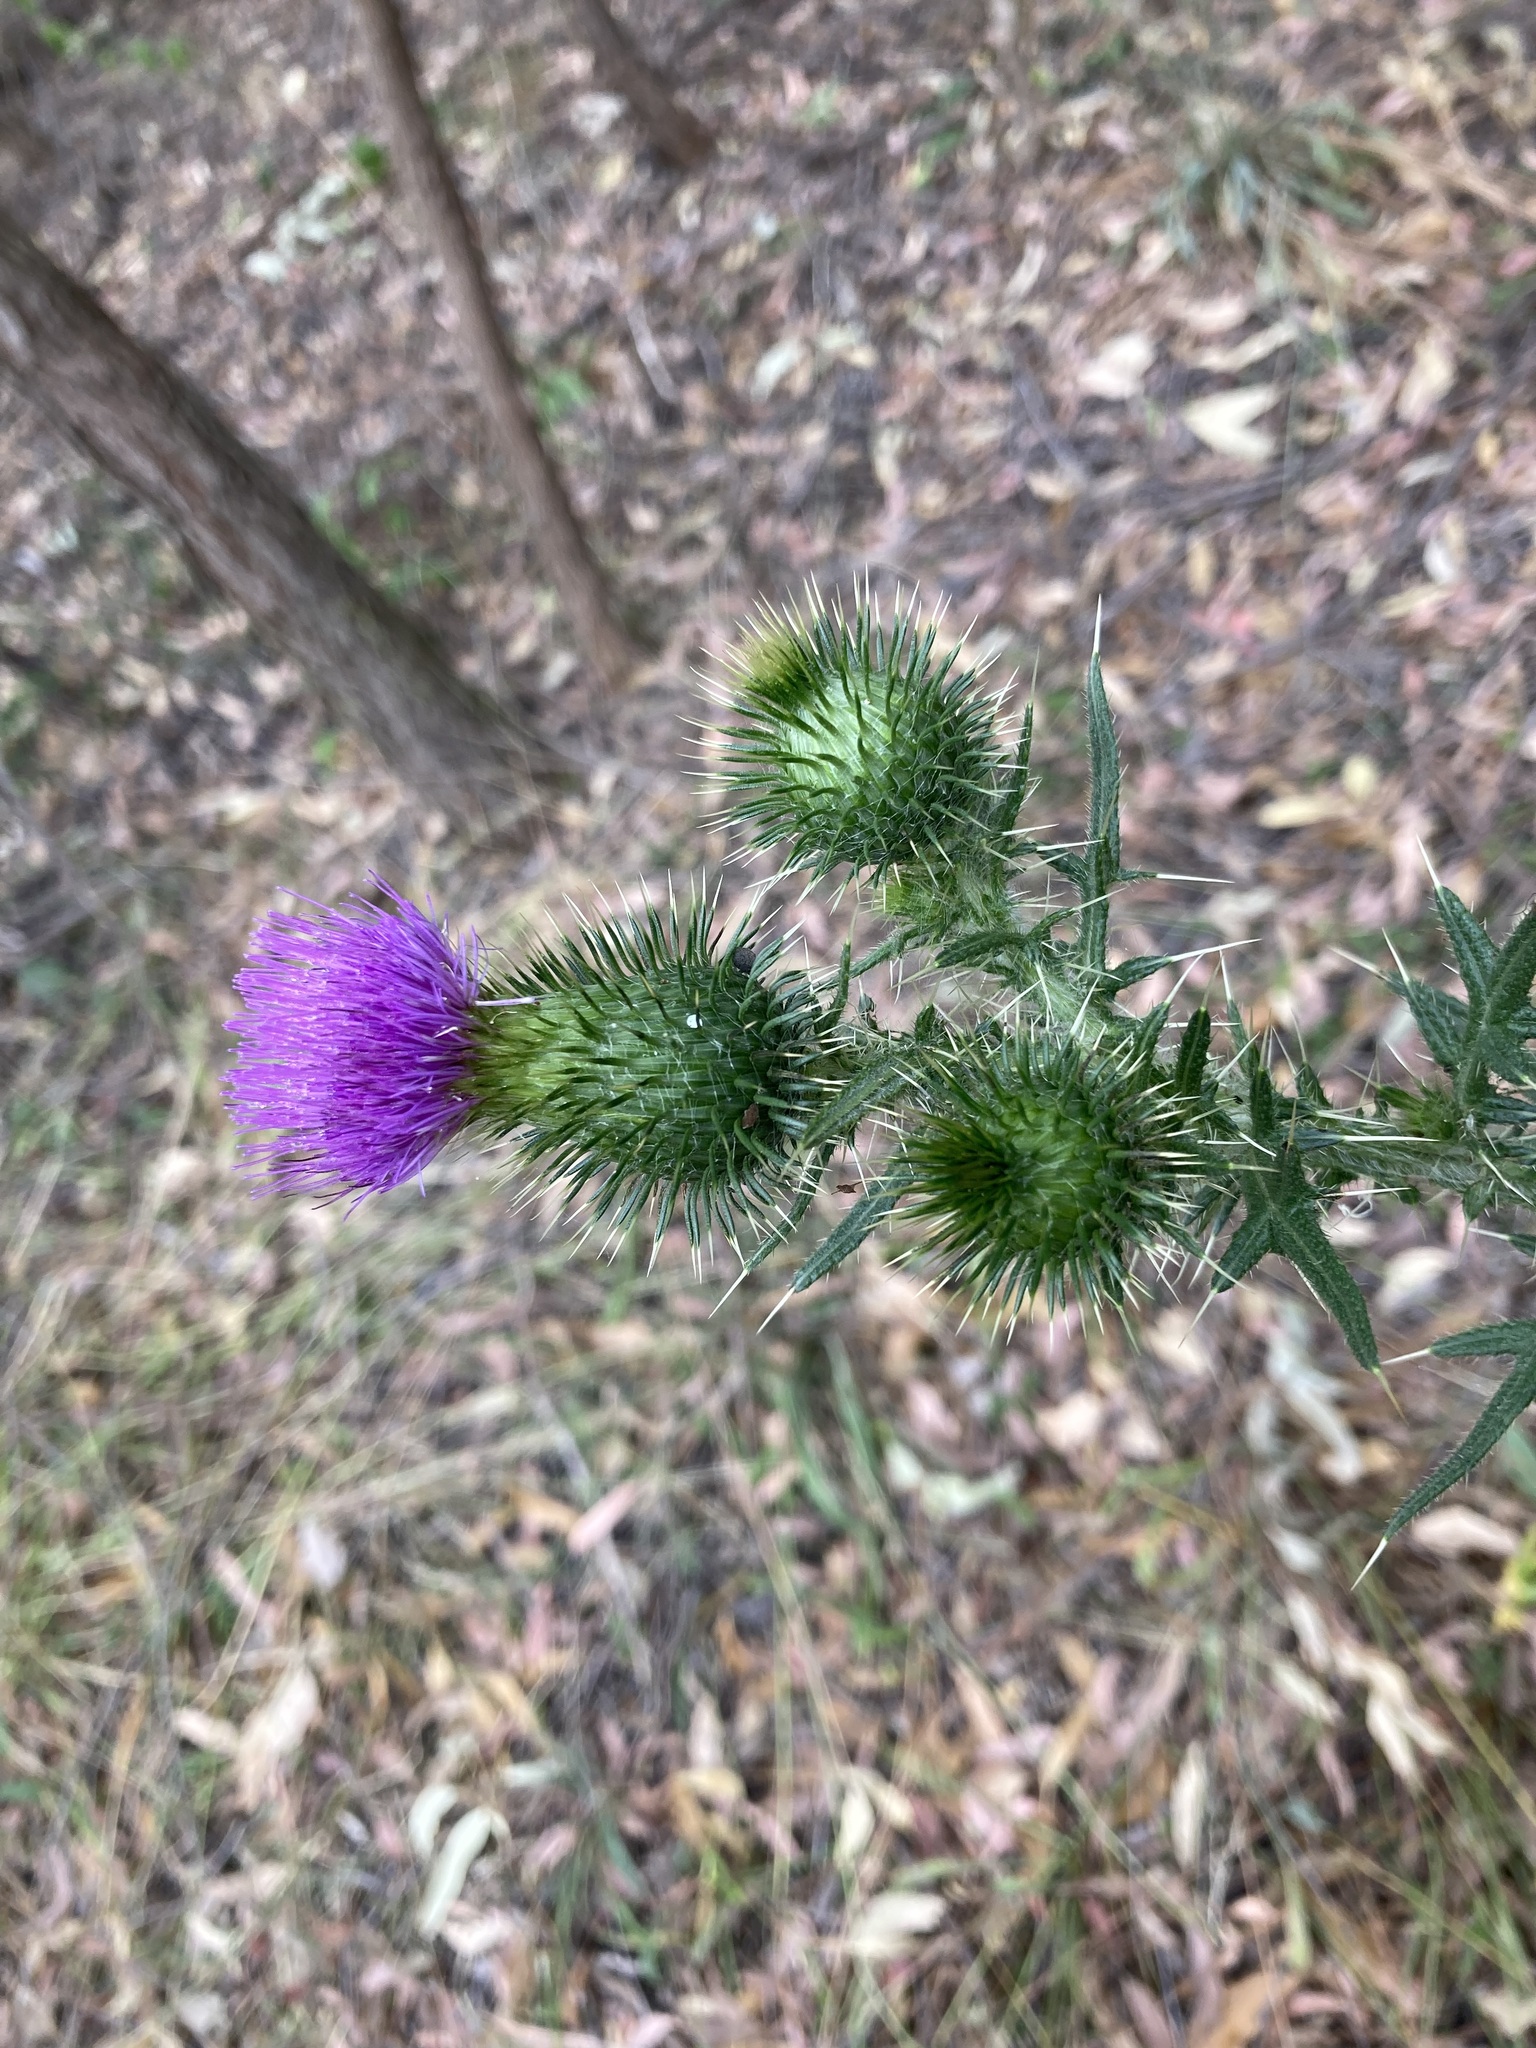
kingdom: Plantae
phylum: Tracheophyta
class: Magnoliopsida
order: Asterales
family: Asteraceae
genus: Cirsium
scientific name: Cirsium vulgare
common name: Bull thistle
